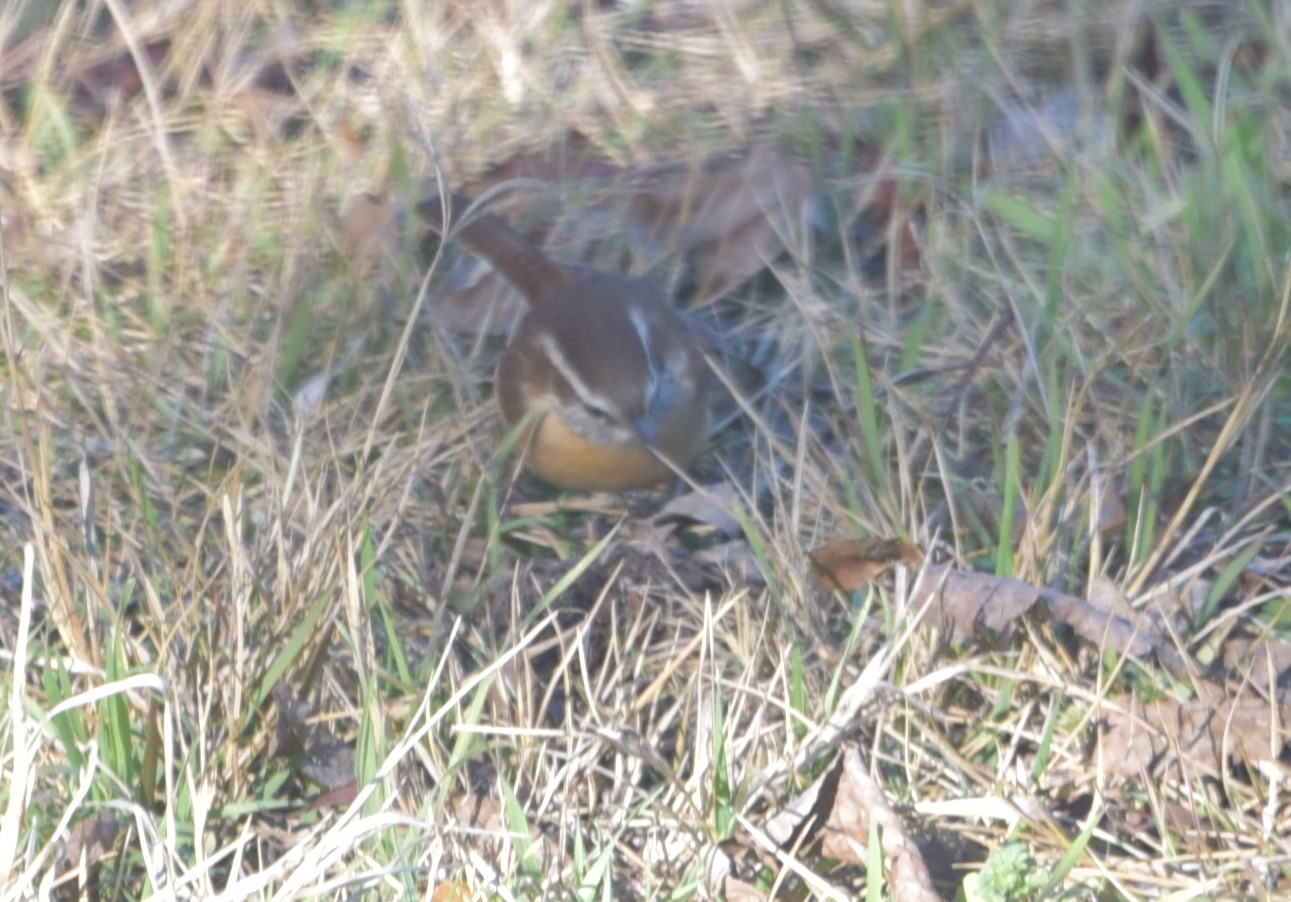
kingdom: Animalia
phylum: Chordata
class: Aves
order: Passeriformes
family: Troglodytidae
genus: Thryothorus
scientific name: Thryothorus ludovicianus
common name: Carolina wren
